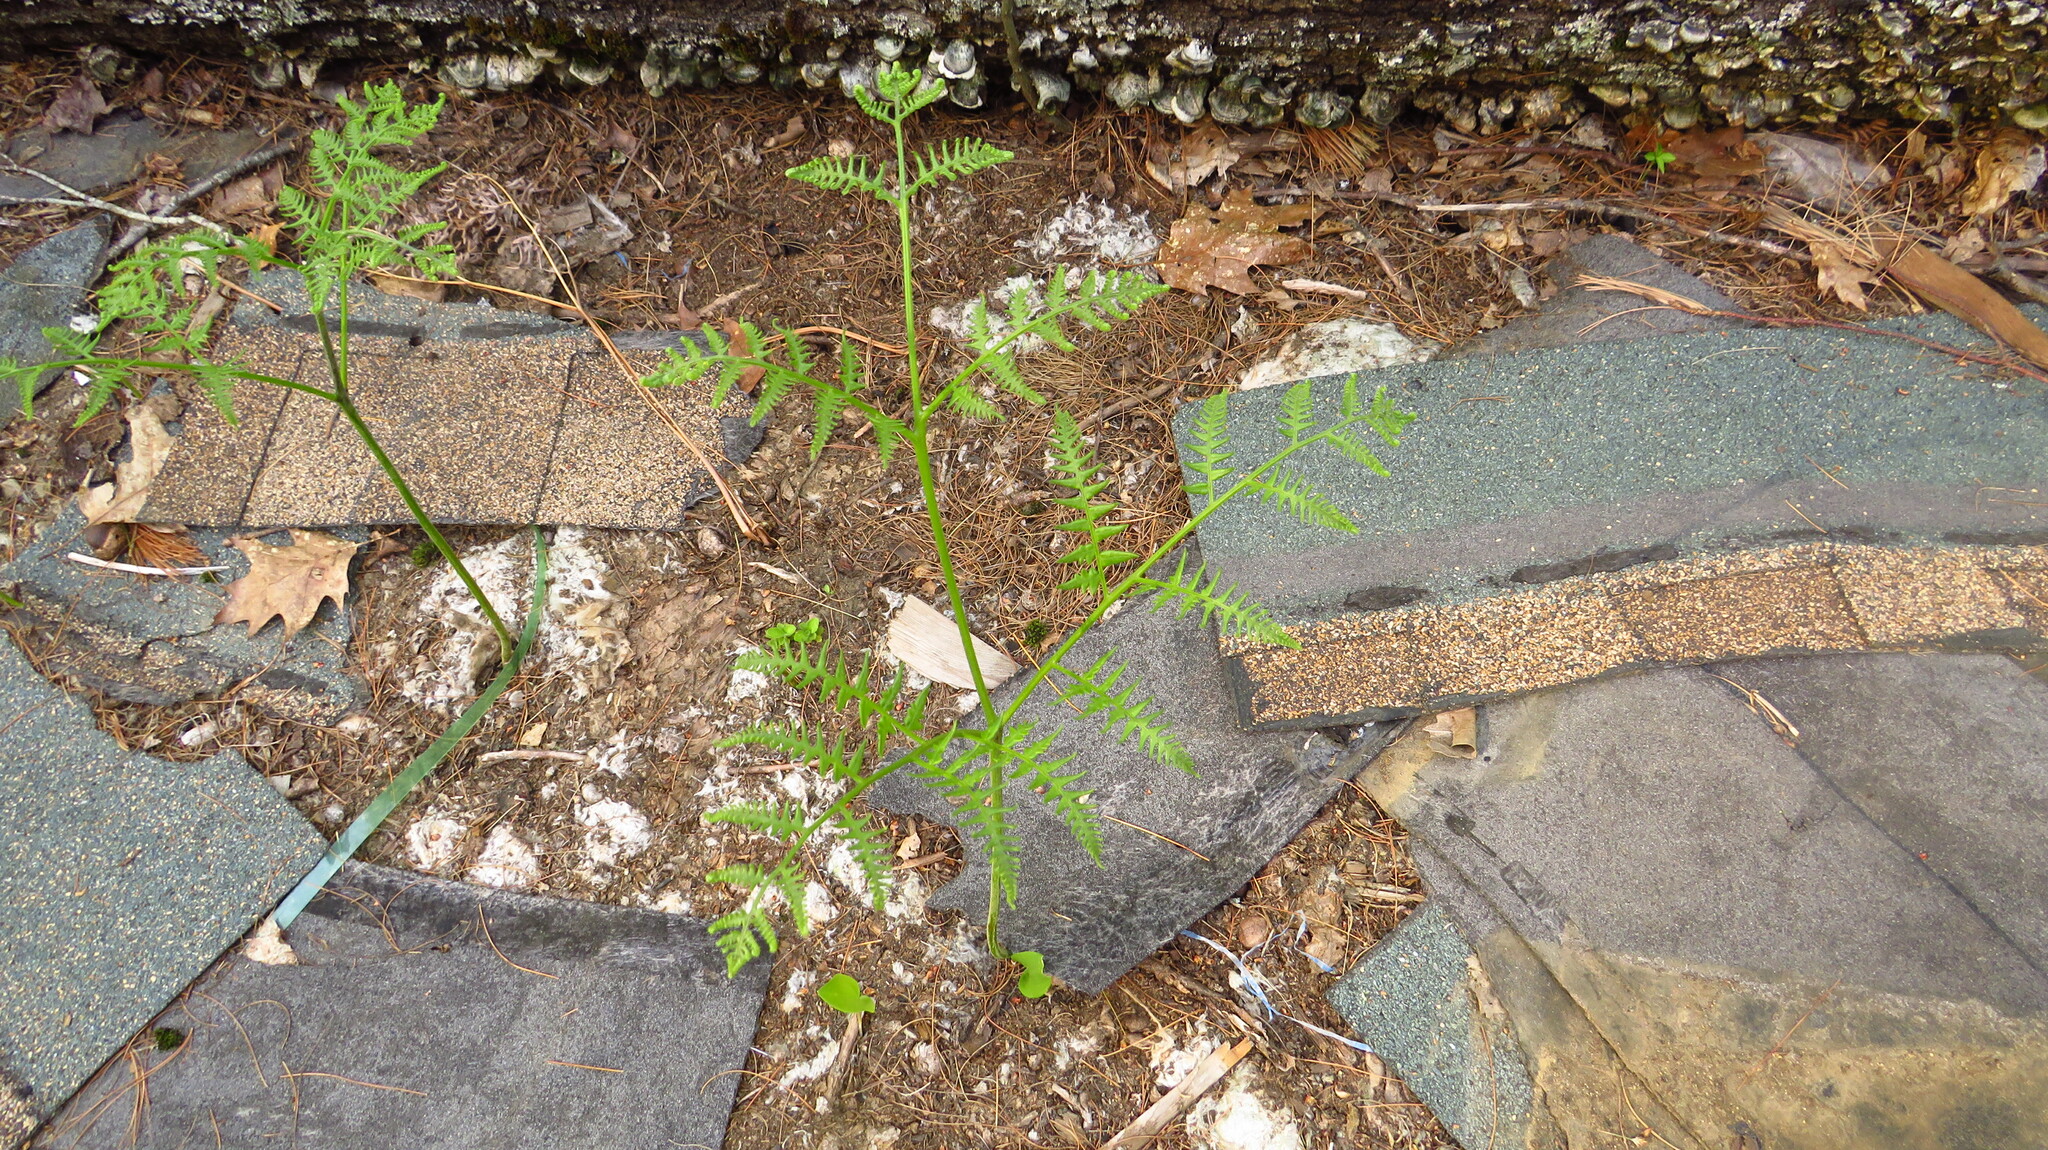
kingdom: Plantae
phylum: Tracheophyta
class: Polypodiopsida
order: Polypodiales
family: Dennstaedtiaceae
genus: Pteridium
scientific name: Pteridium aquilinum
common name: Bracken
